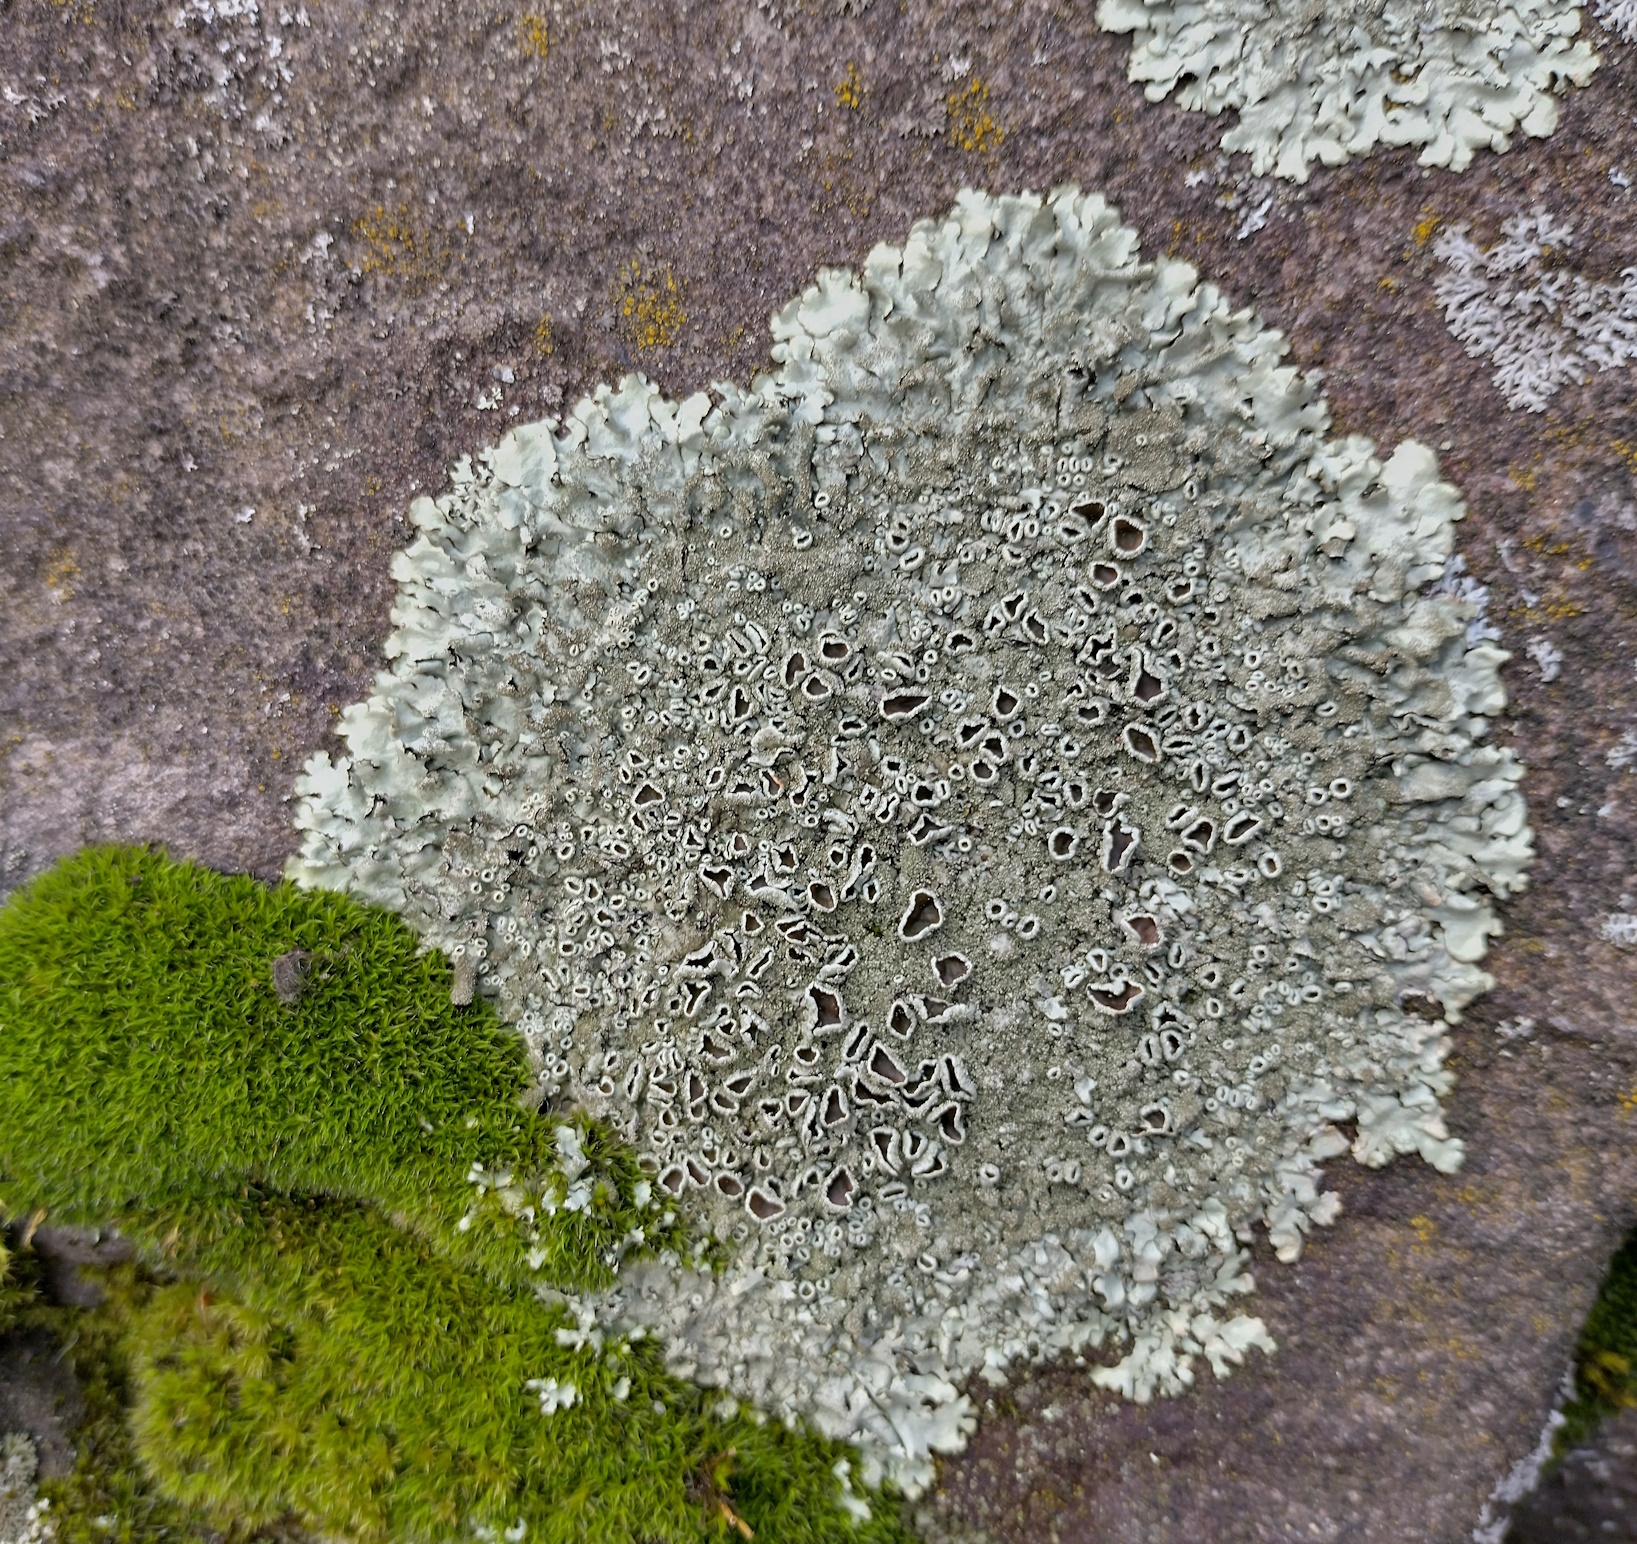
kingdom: Fungi
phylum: Ascomycota
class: Lecanoromycetes
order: Lecanorales
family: Parmeliaceae
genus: Xanthoparmelia
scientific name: Xanthoparmelia conspersa
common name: Peppered rock shield
